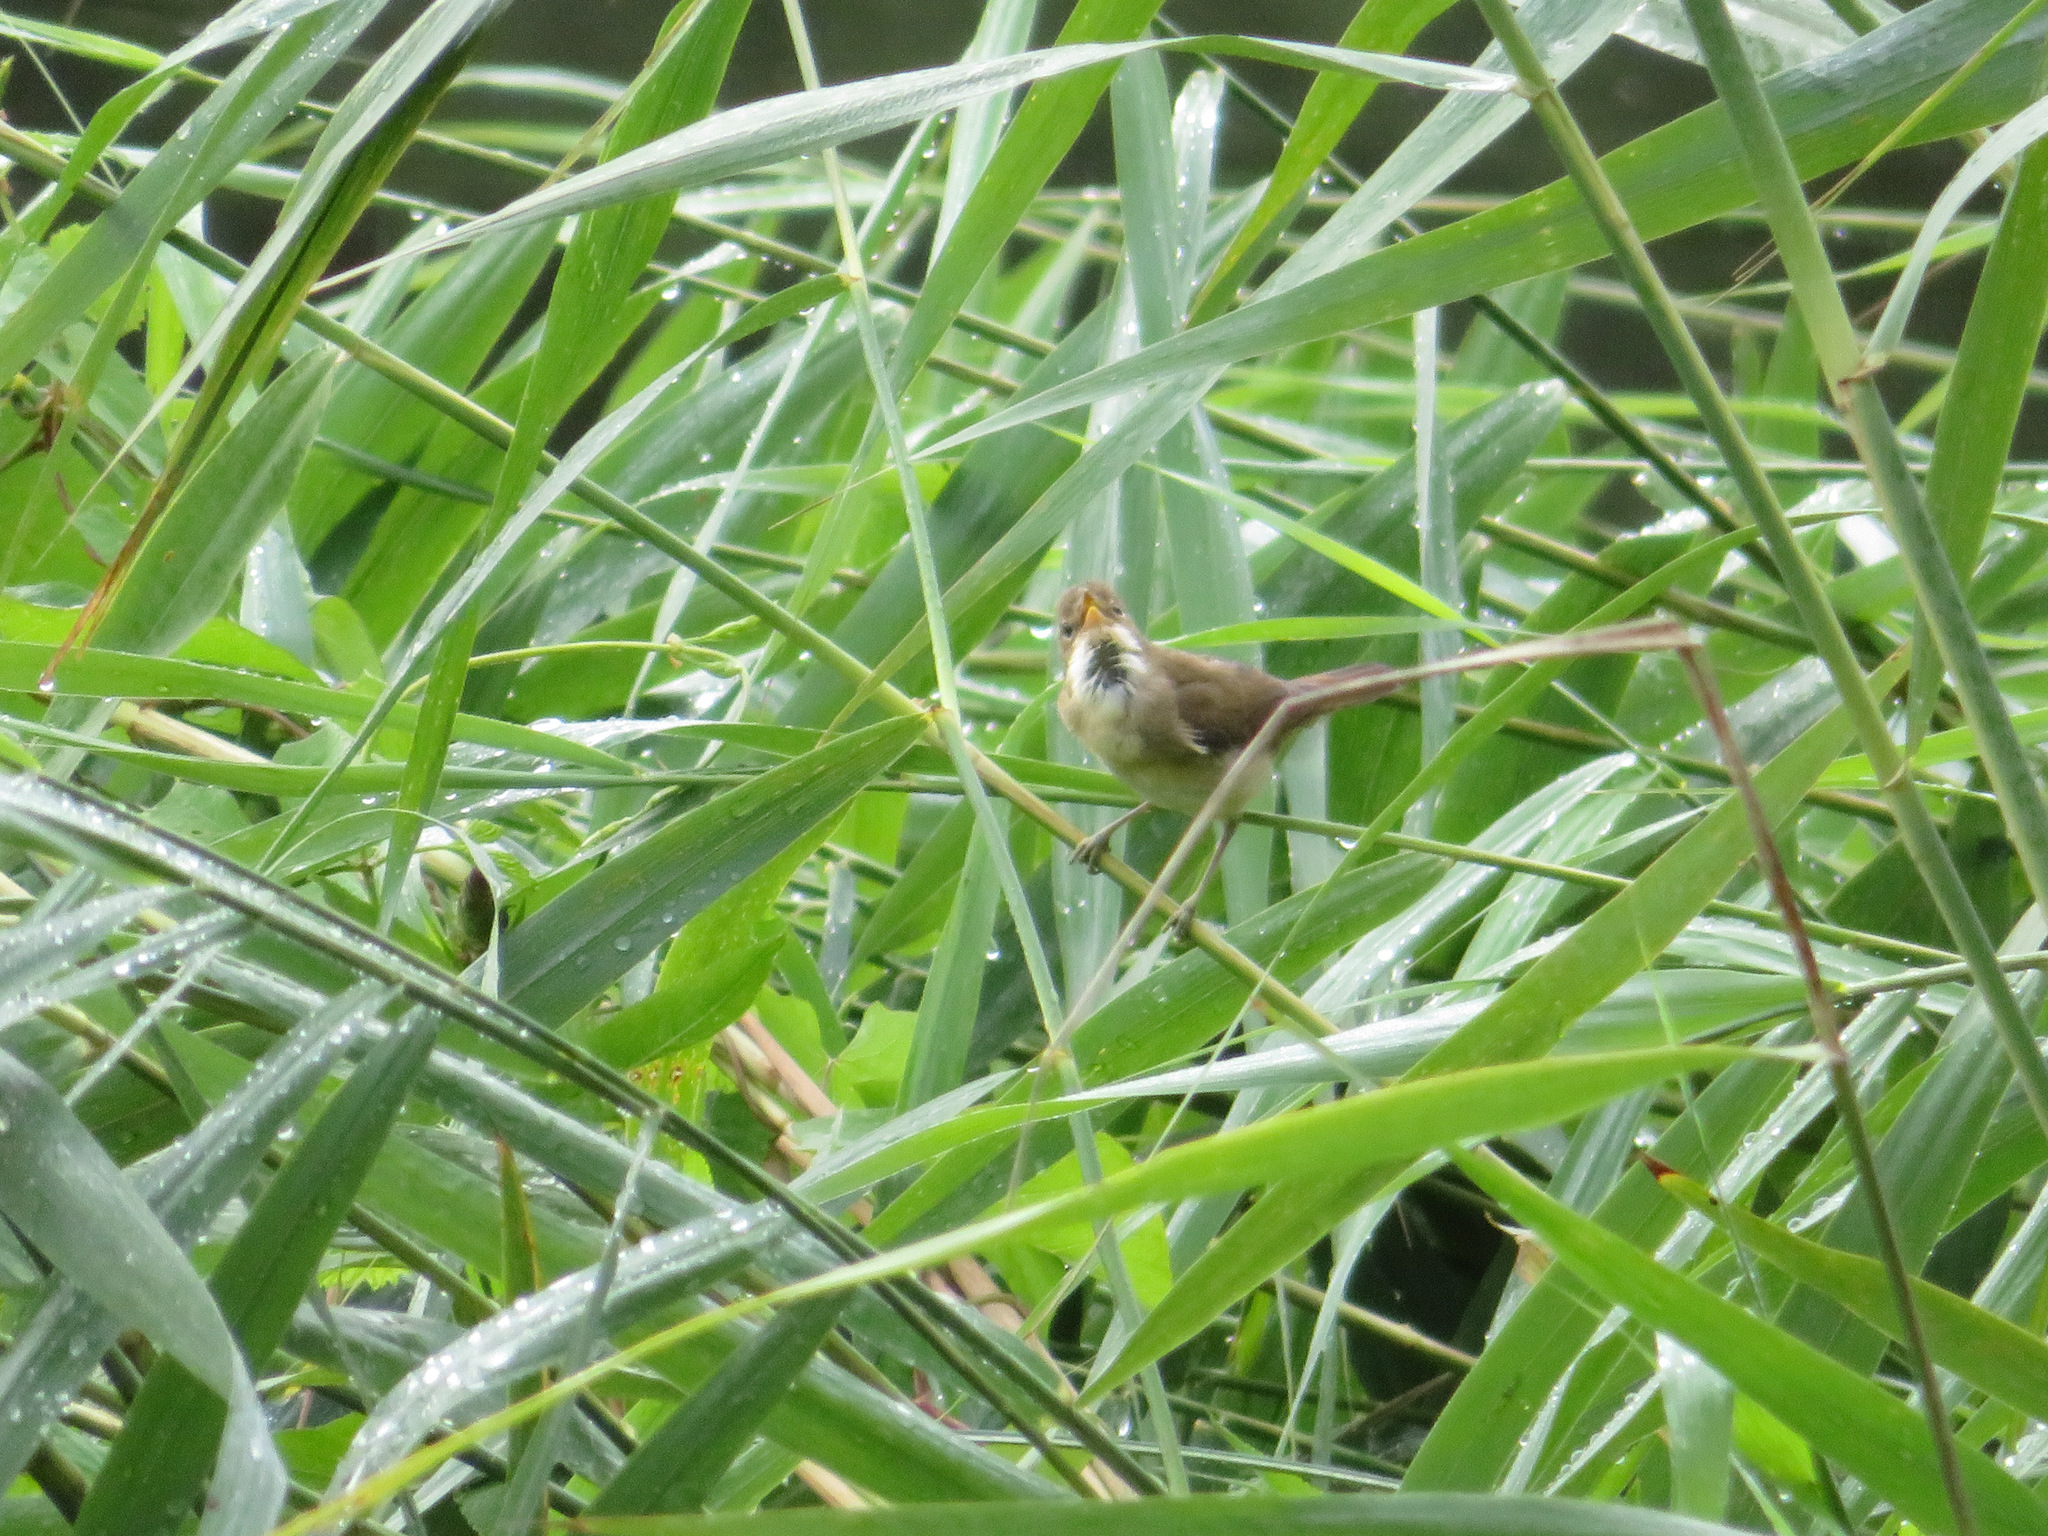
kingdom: Animalia
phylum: Chordata
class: Aves
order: Passeriformes
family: Acrocephalidae
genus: Acrocephalus
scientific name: Acrocephalus scirpaceus
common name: Eurasian reed warbler
